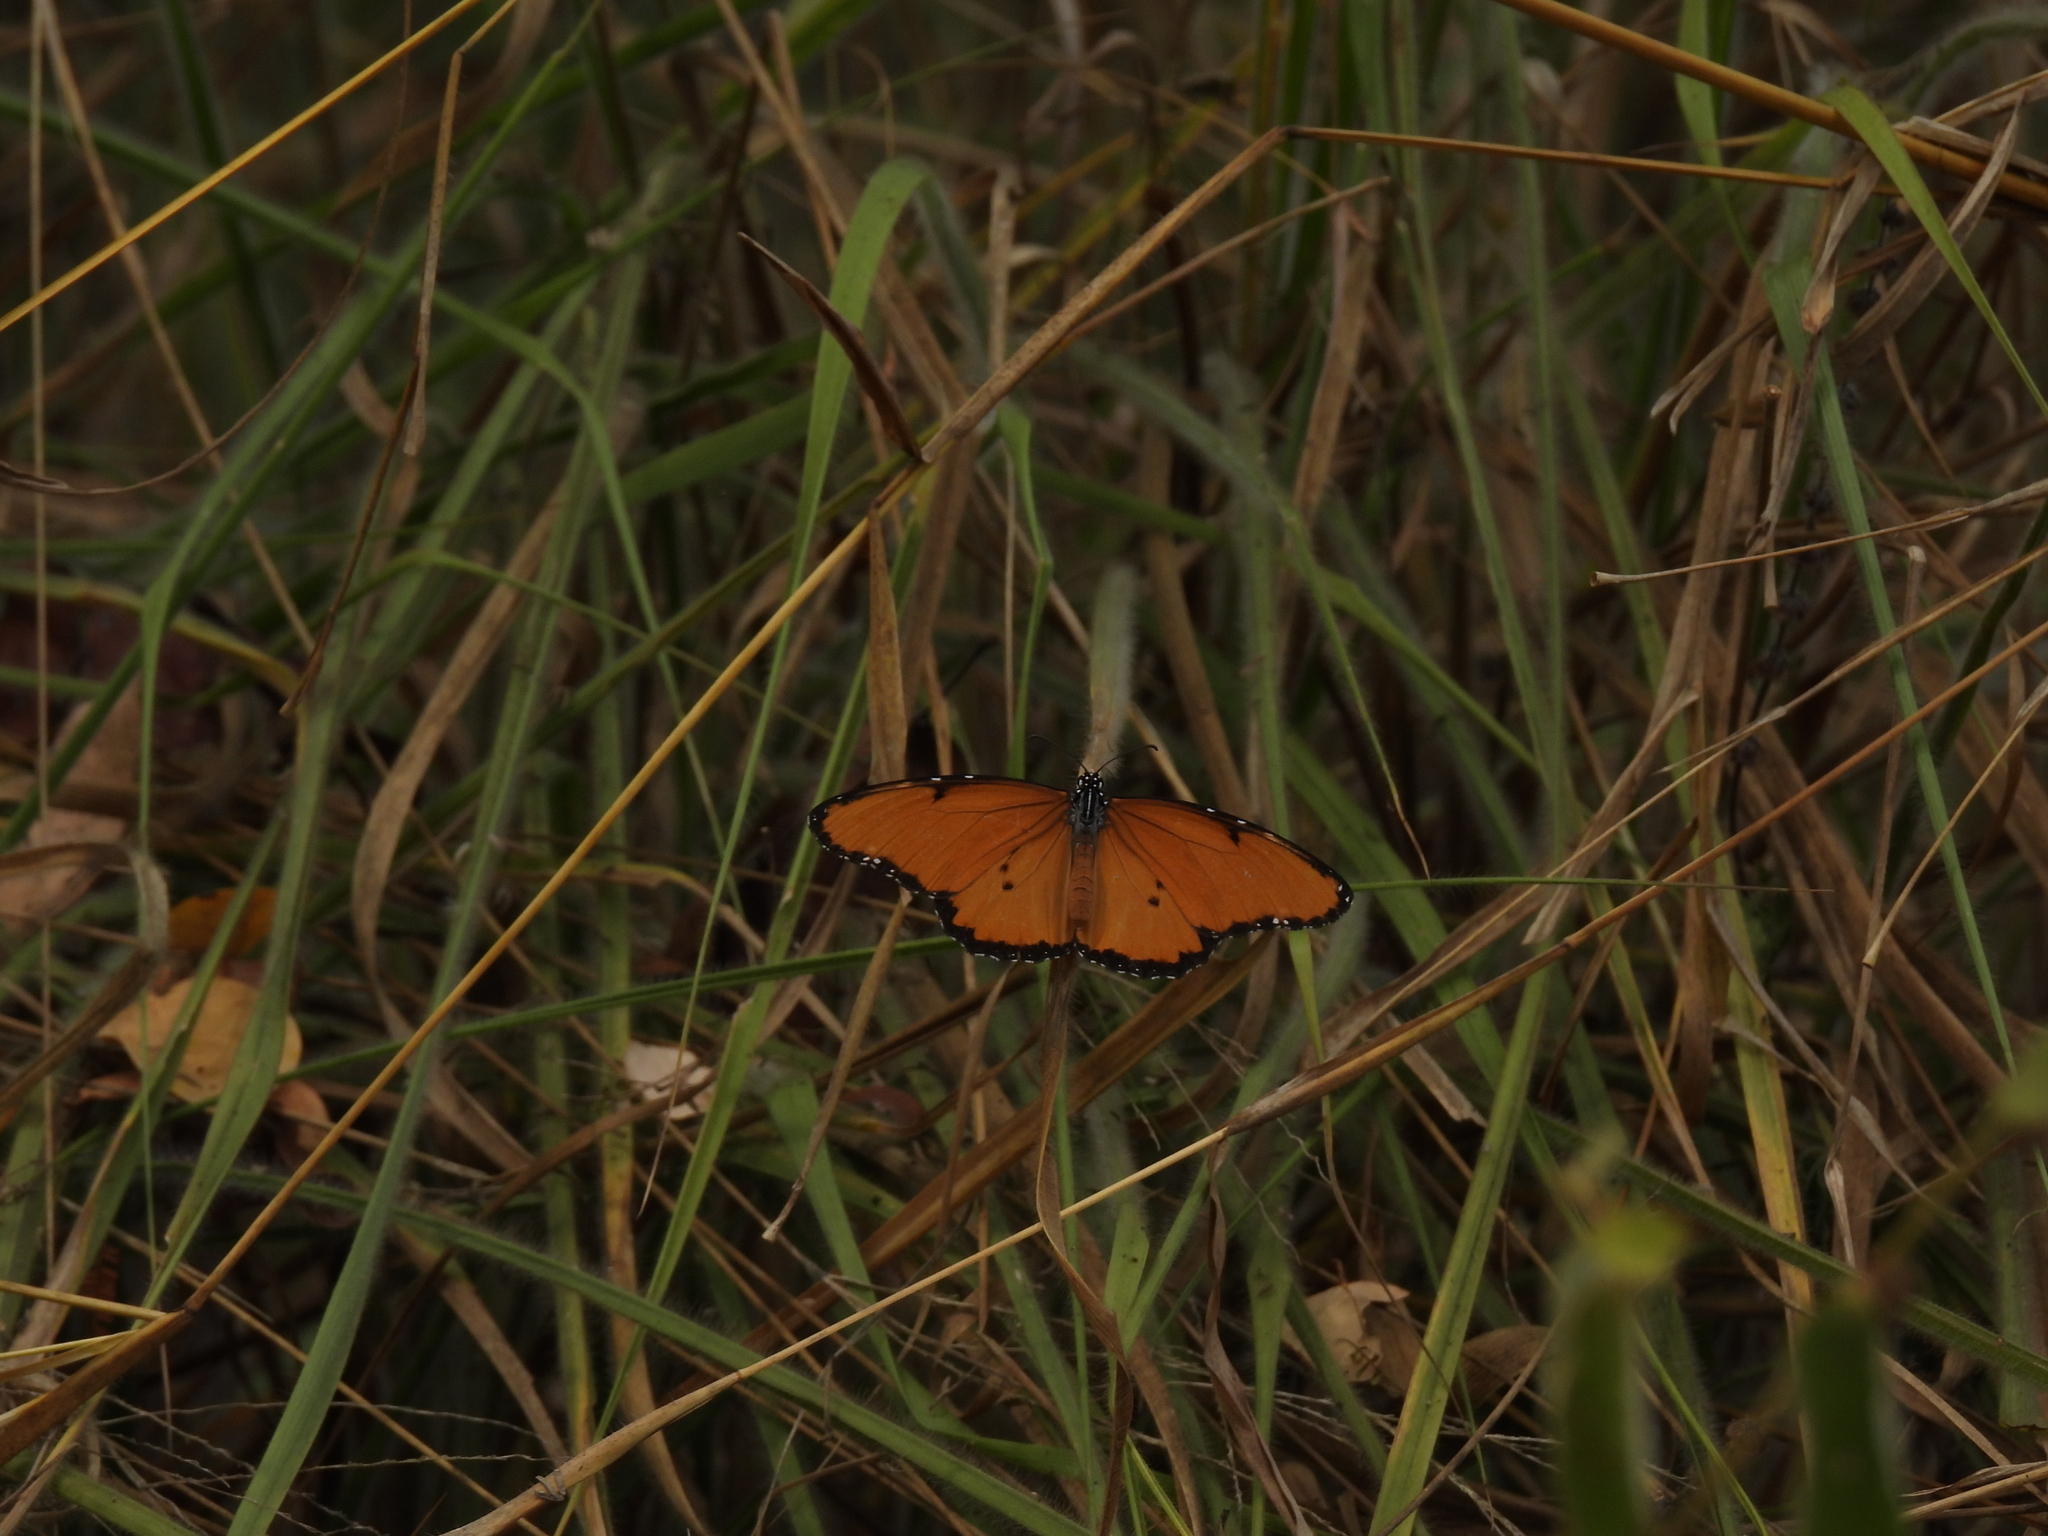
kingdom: Animalia
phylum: Arthropoda
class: Insecta
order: Lepidoptera
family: Nymphalidae
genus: Danaus
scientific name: Danaus chrysippus
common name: Plain tiger
